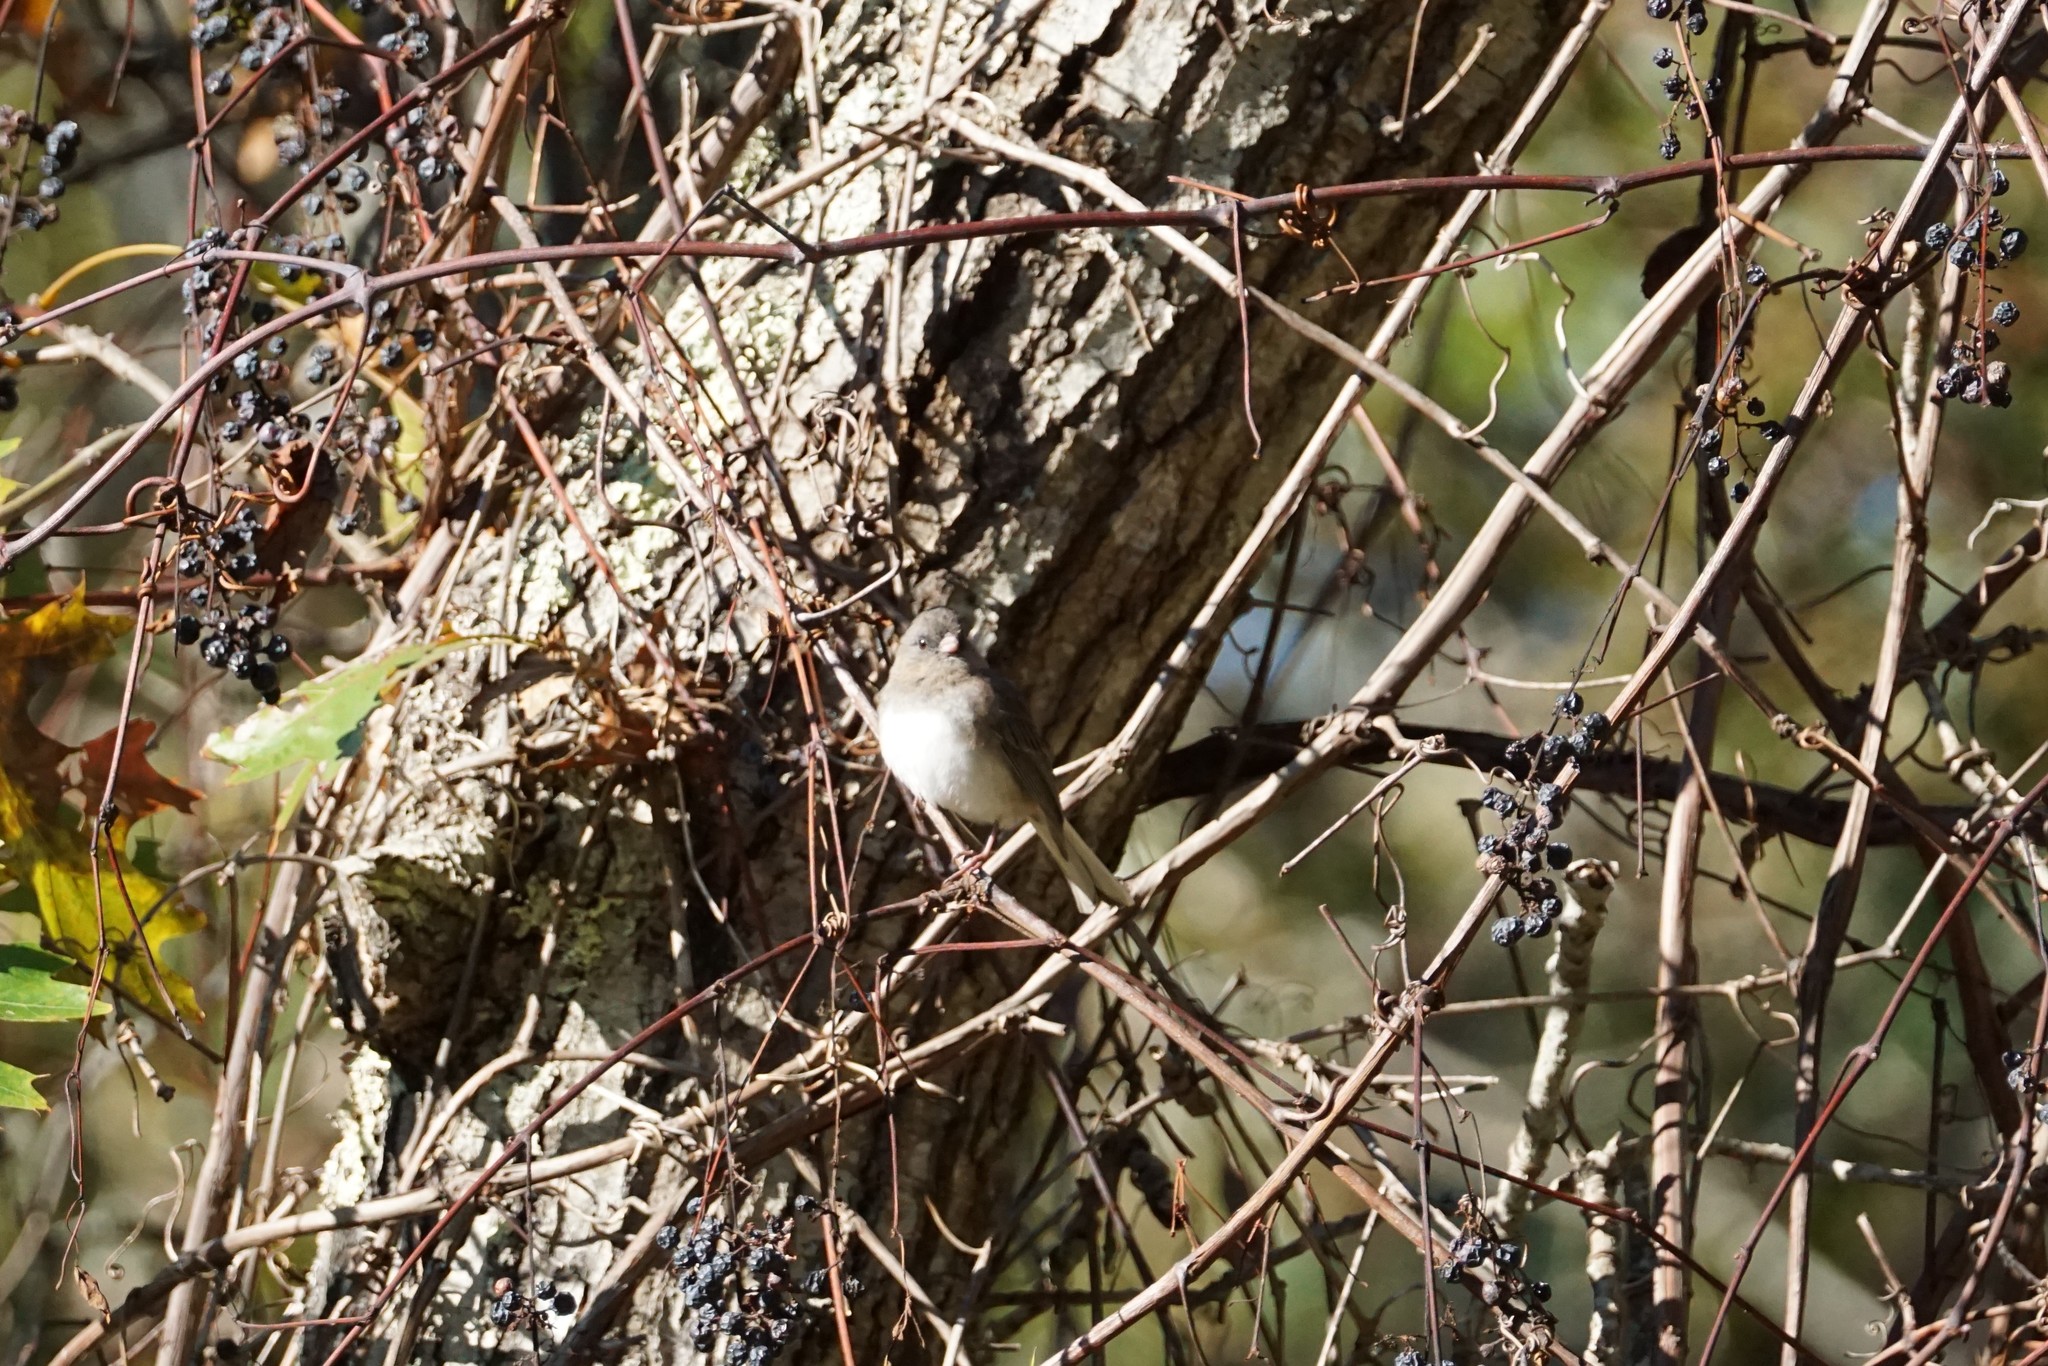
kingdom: Animalia
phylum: Chordata
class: Aves
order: Passeriformes
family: Passerellidae
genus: Junco
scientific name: Junco hyemalis
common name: Dark-eyed junco
